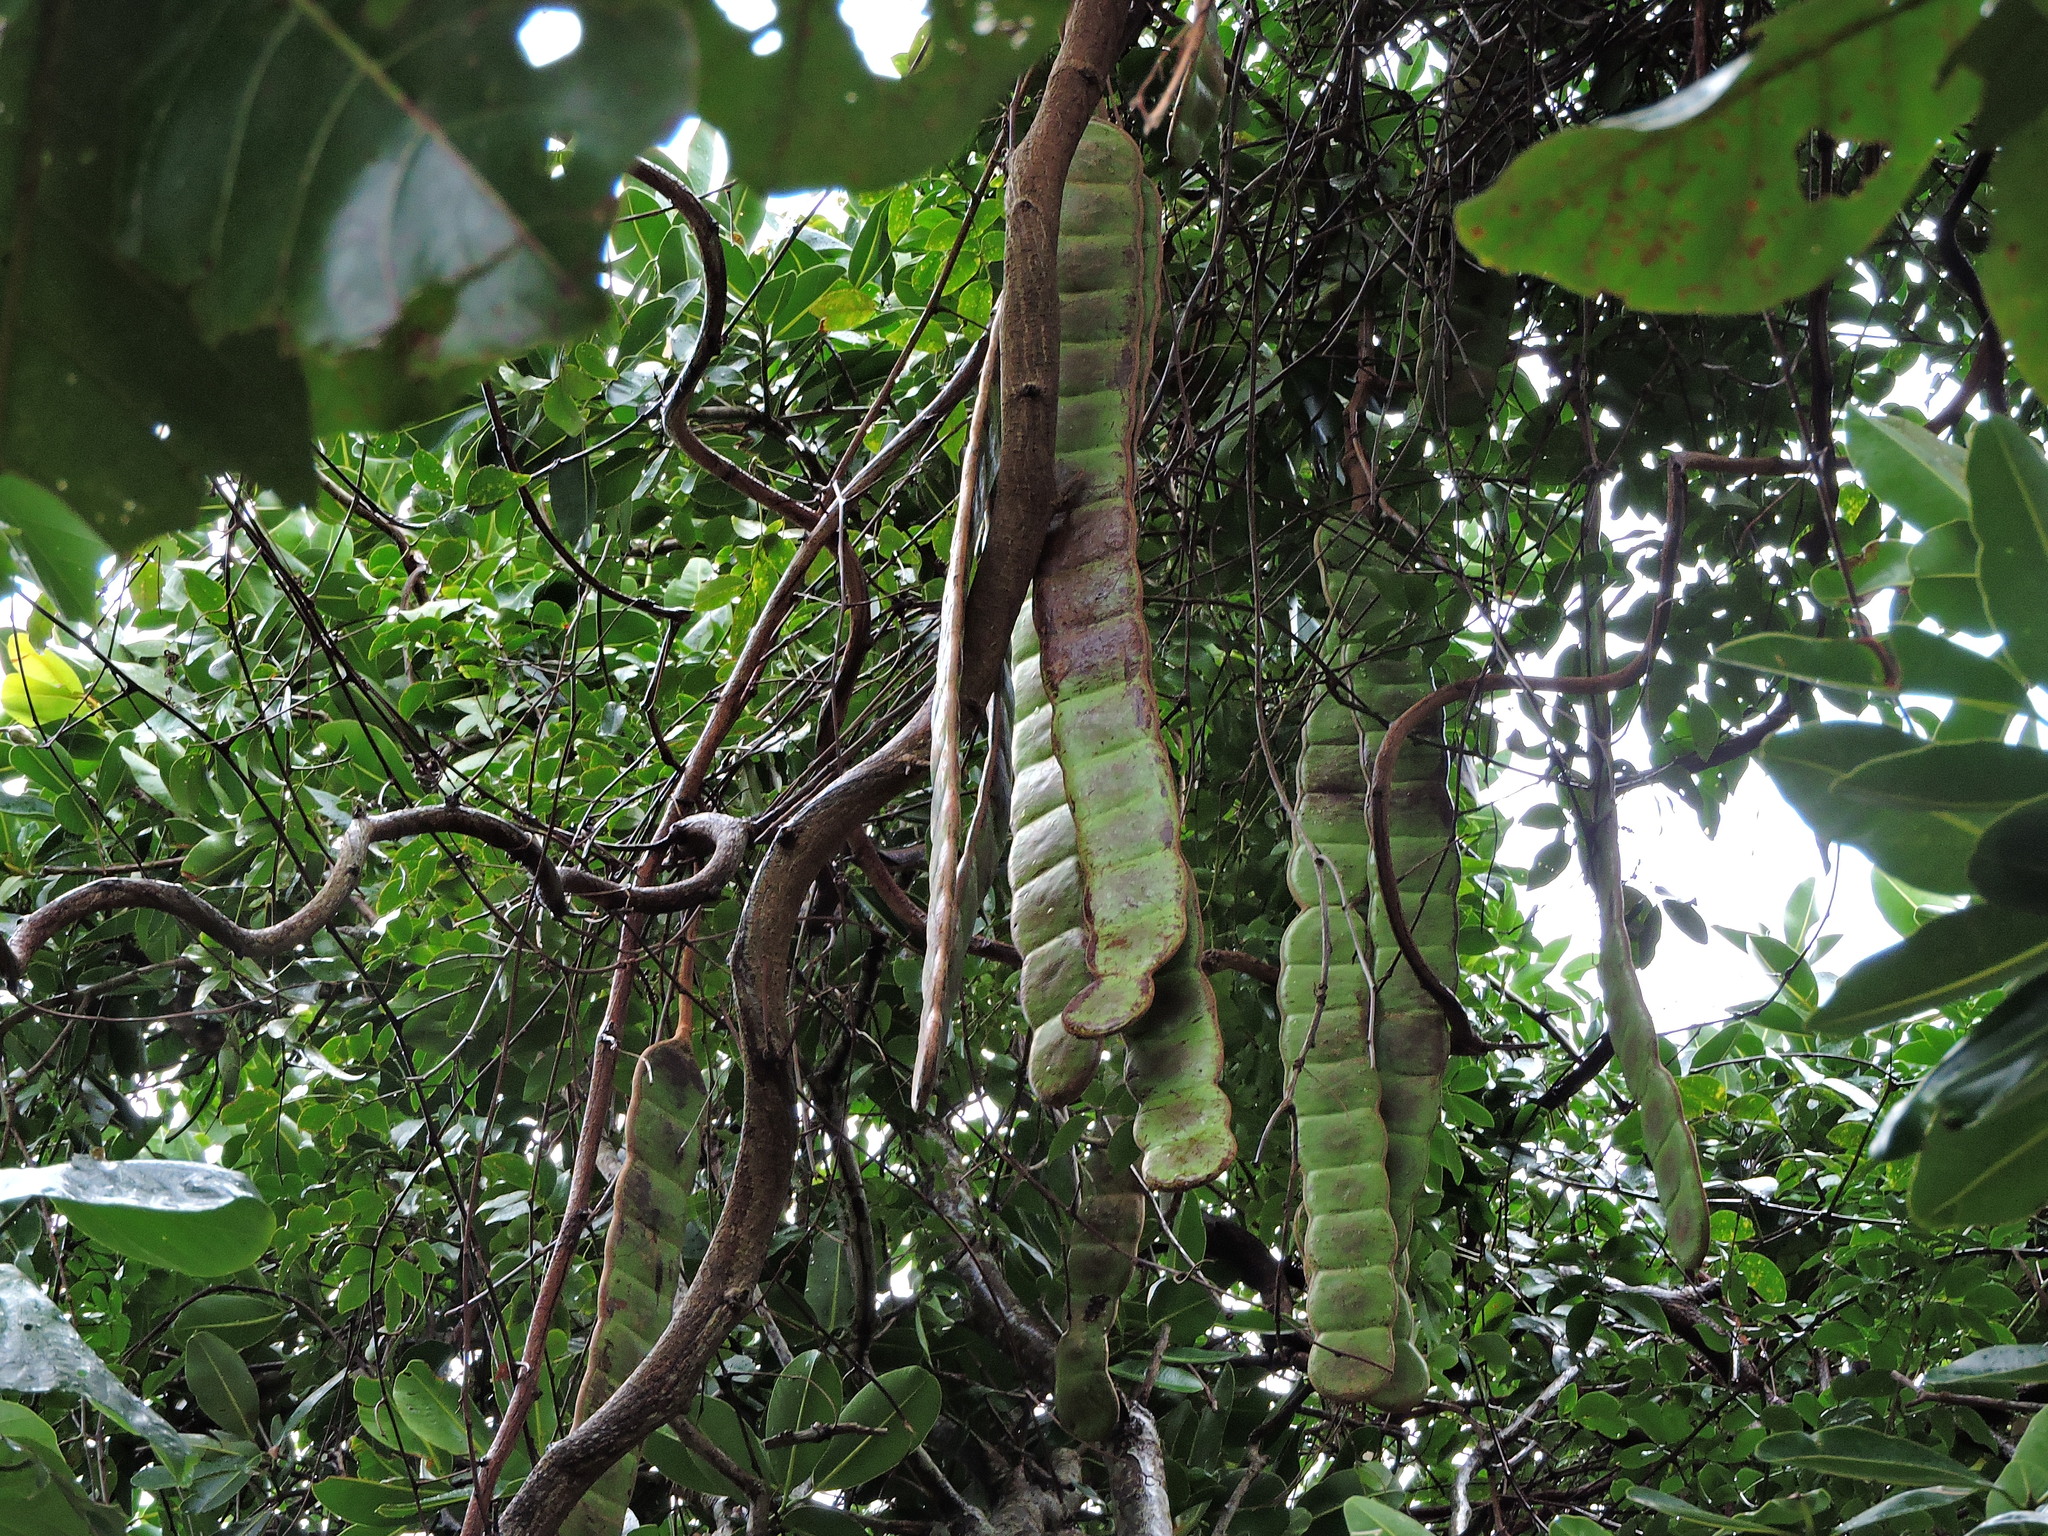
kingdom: Plantae
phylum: Tracheophyta
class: Magnoliopsida
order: Fabales
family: Fabaceae
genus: Entada
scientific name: Entada phaseoloides
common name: Matchbox-bean
